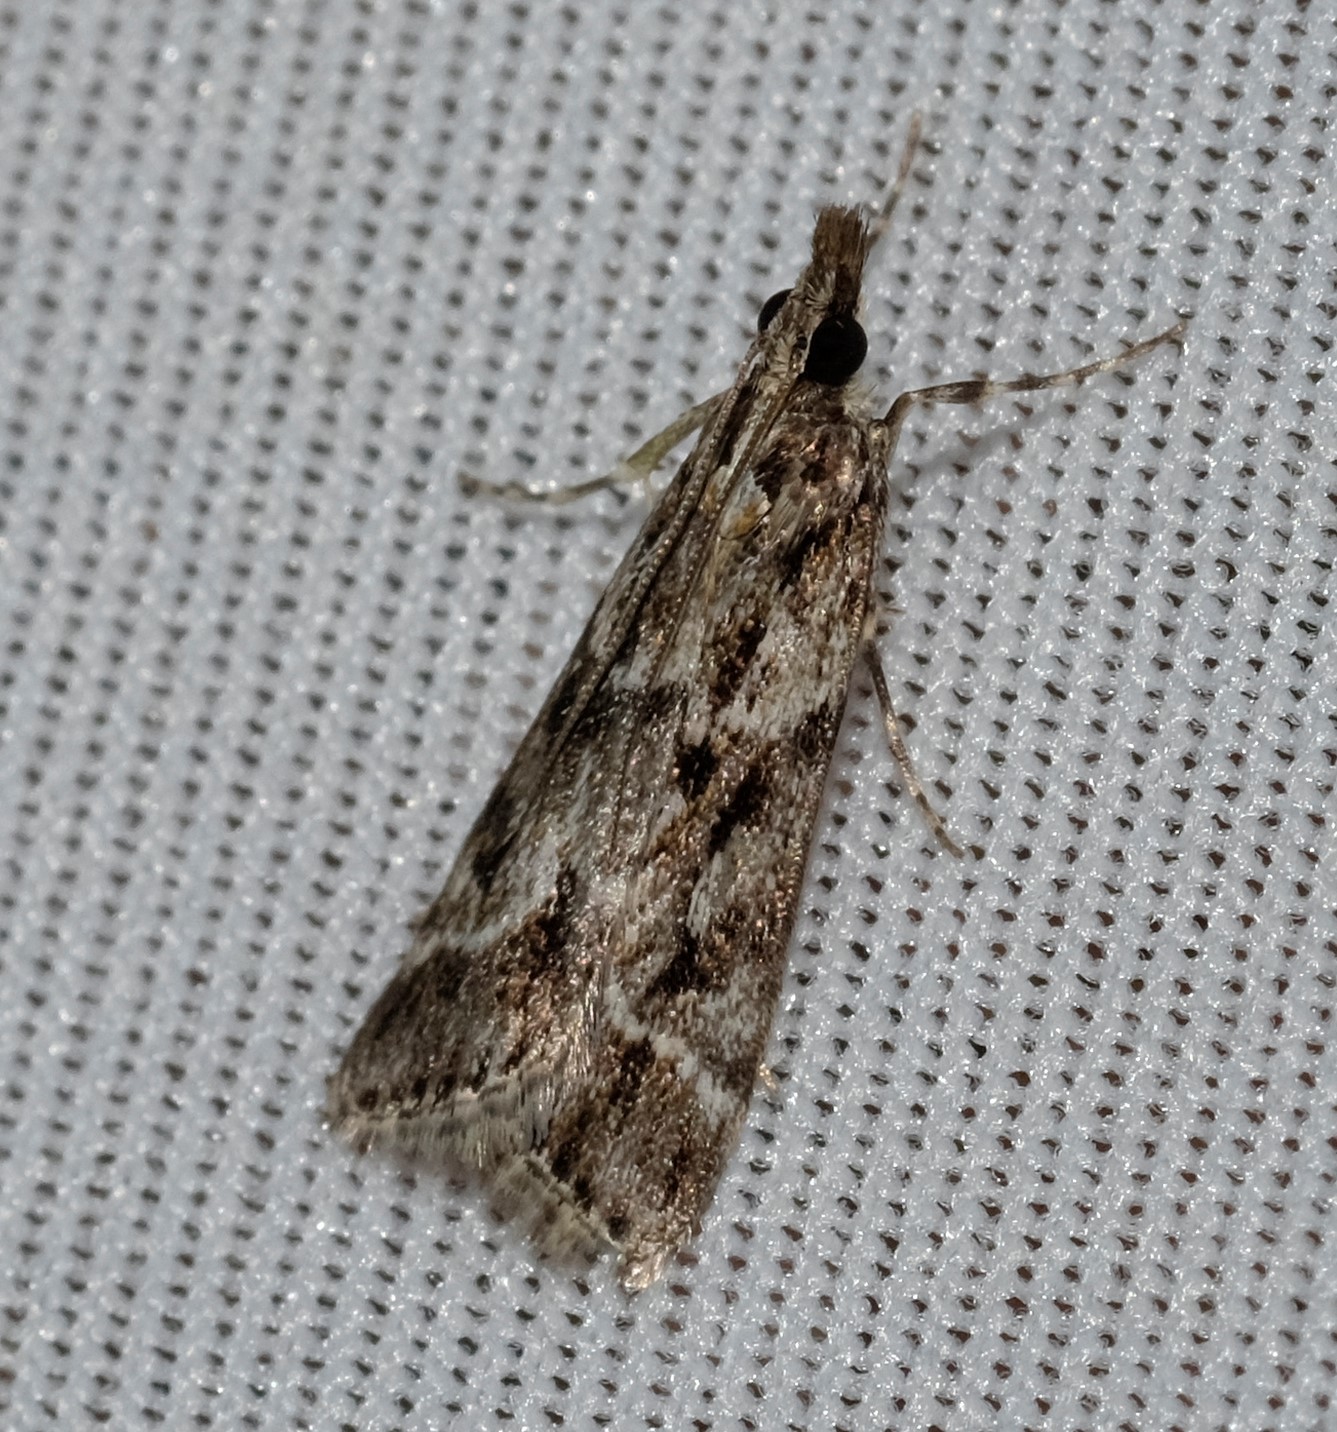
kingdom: Animalia
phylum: Arthropoda
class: Insecta
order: Lepidoptera
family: Crambidae
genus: Scoparia
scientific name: Scoparia oxygona
